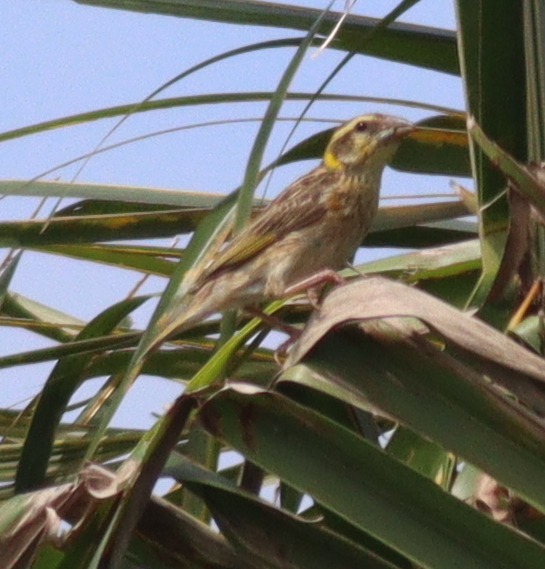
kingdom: Animalia
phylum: Chordata
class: Aves
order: Passeriformes
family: Ploceidae
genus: Ploceus
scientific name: Ploceus philippinus
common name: Baya weaver
